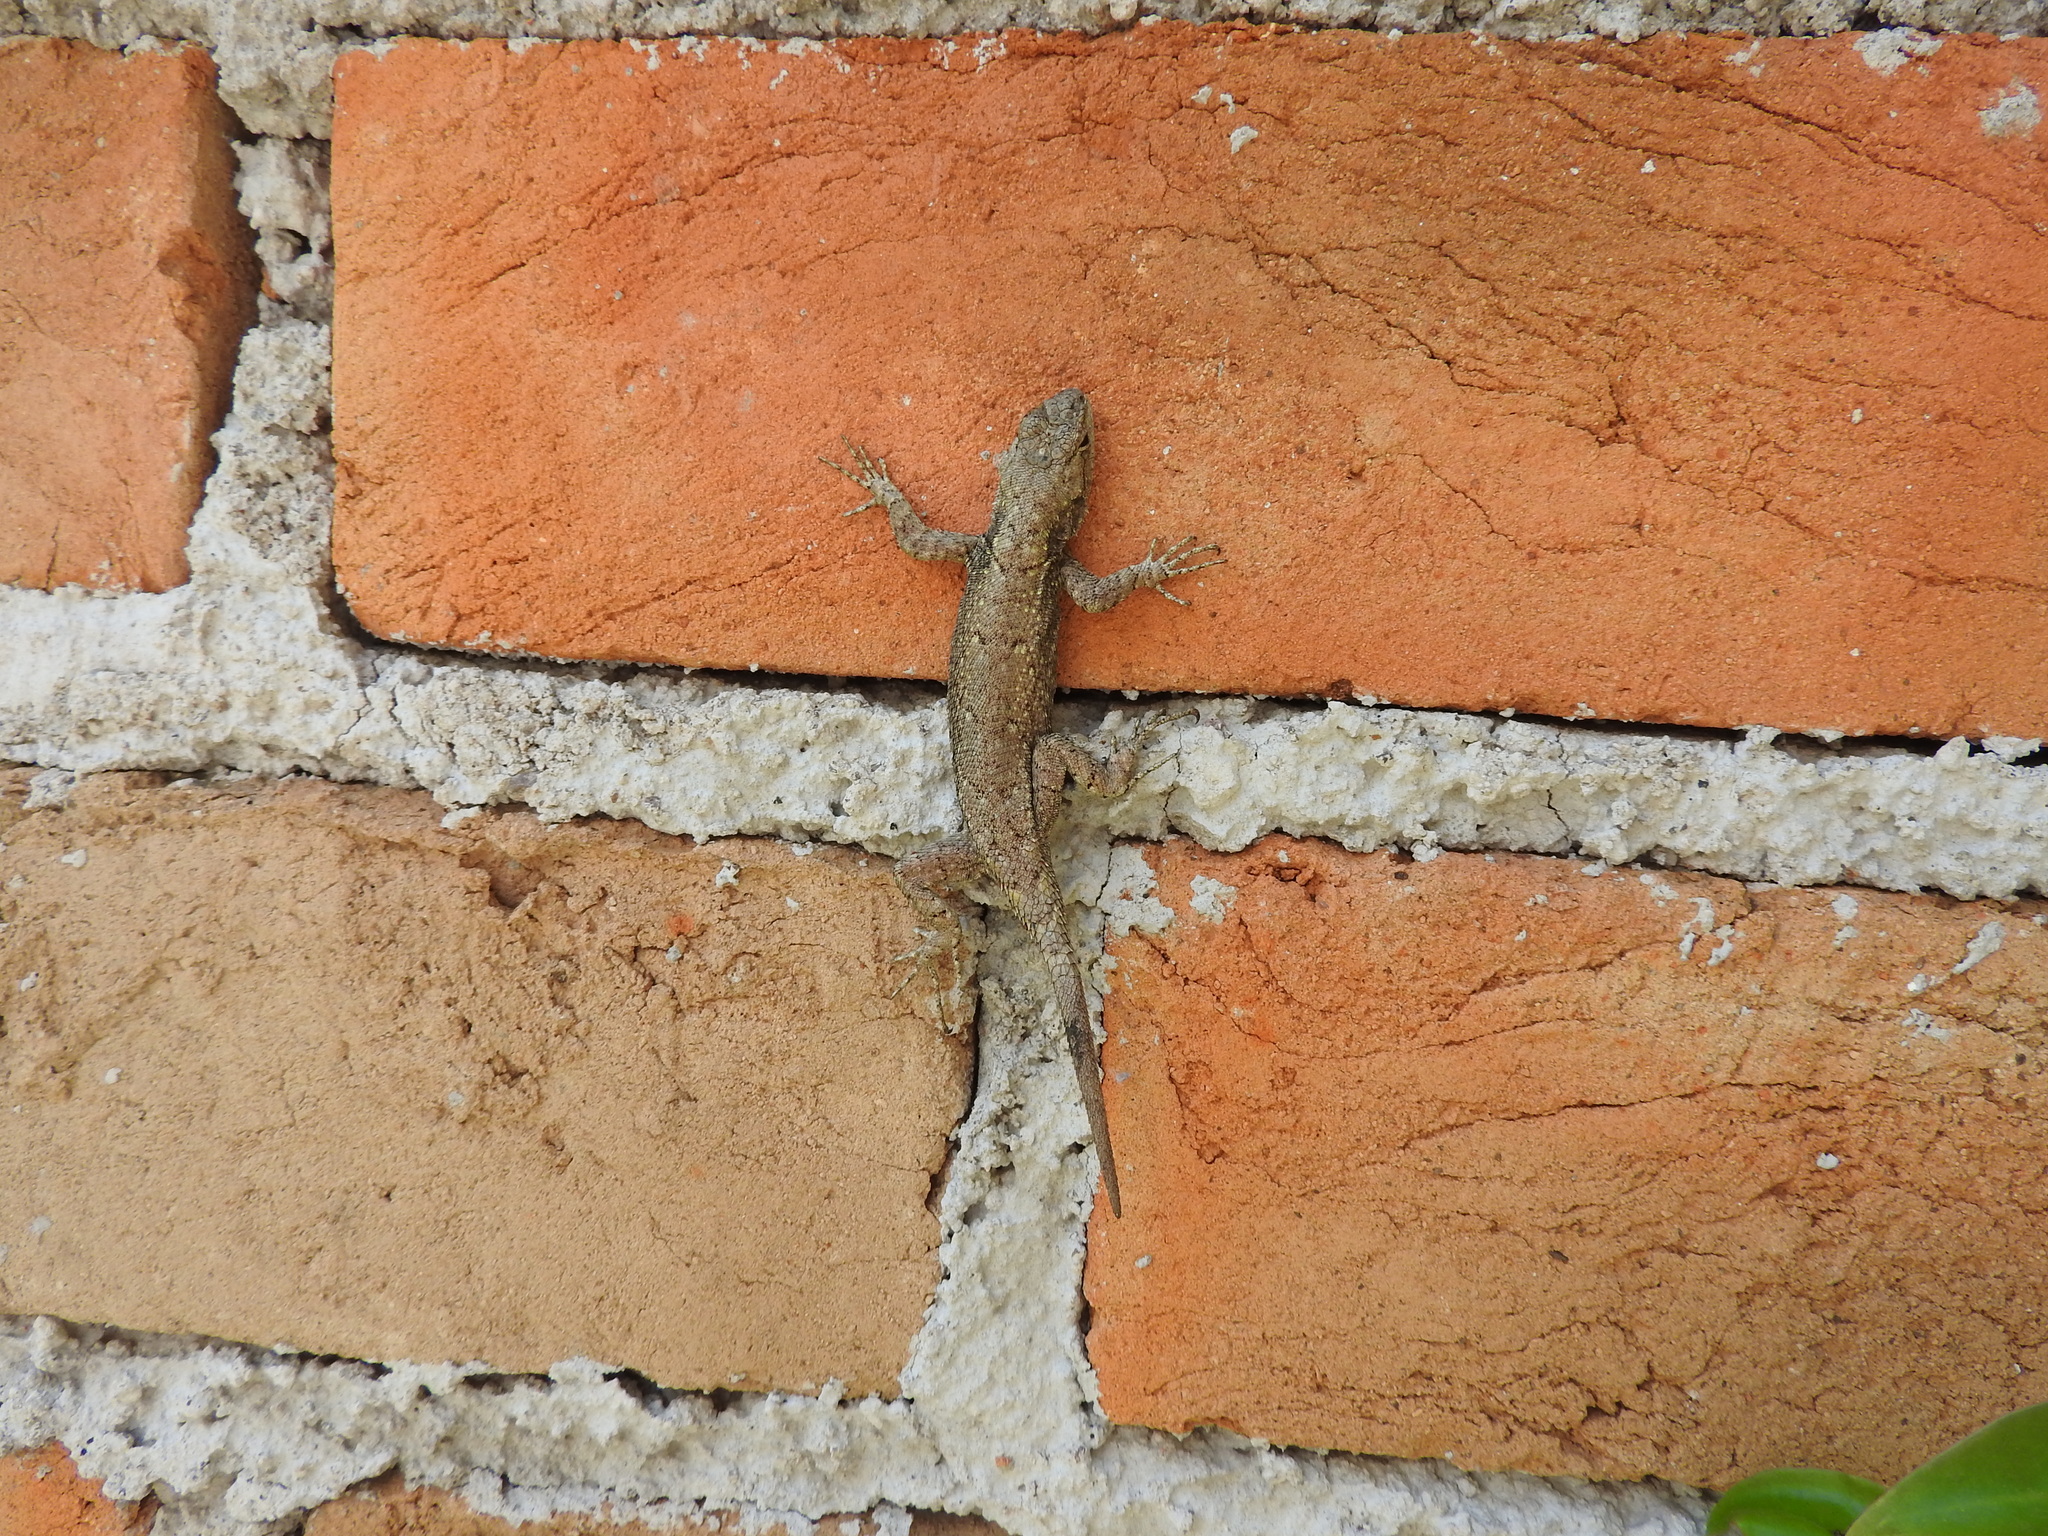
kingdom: Animalia
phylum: Chordata
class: Squamata
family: Phrynosomatidae
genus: Sceloporus
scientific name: Sceloporus grammicus
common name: Mesquite lizard
